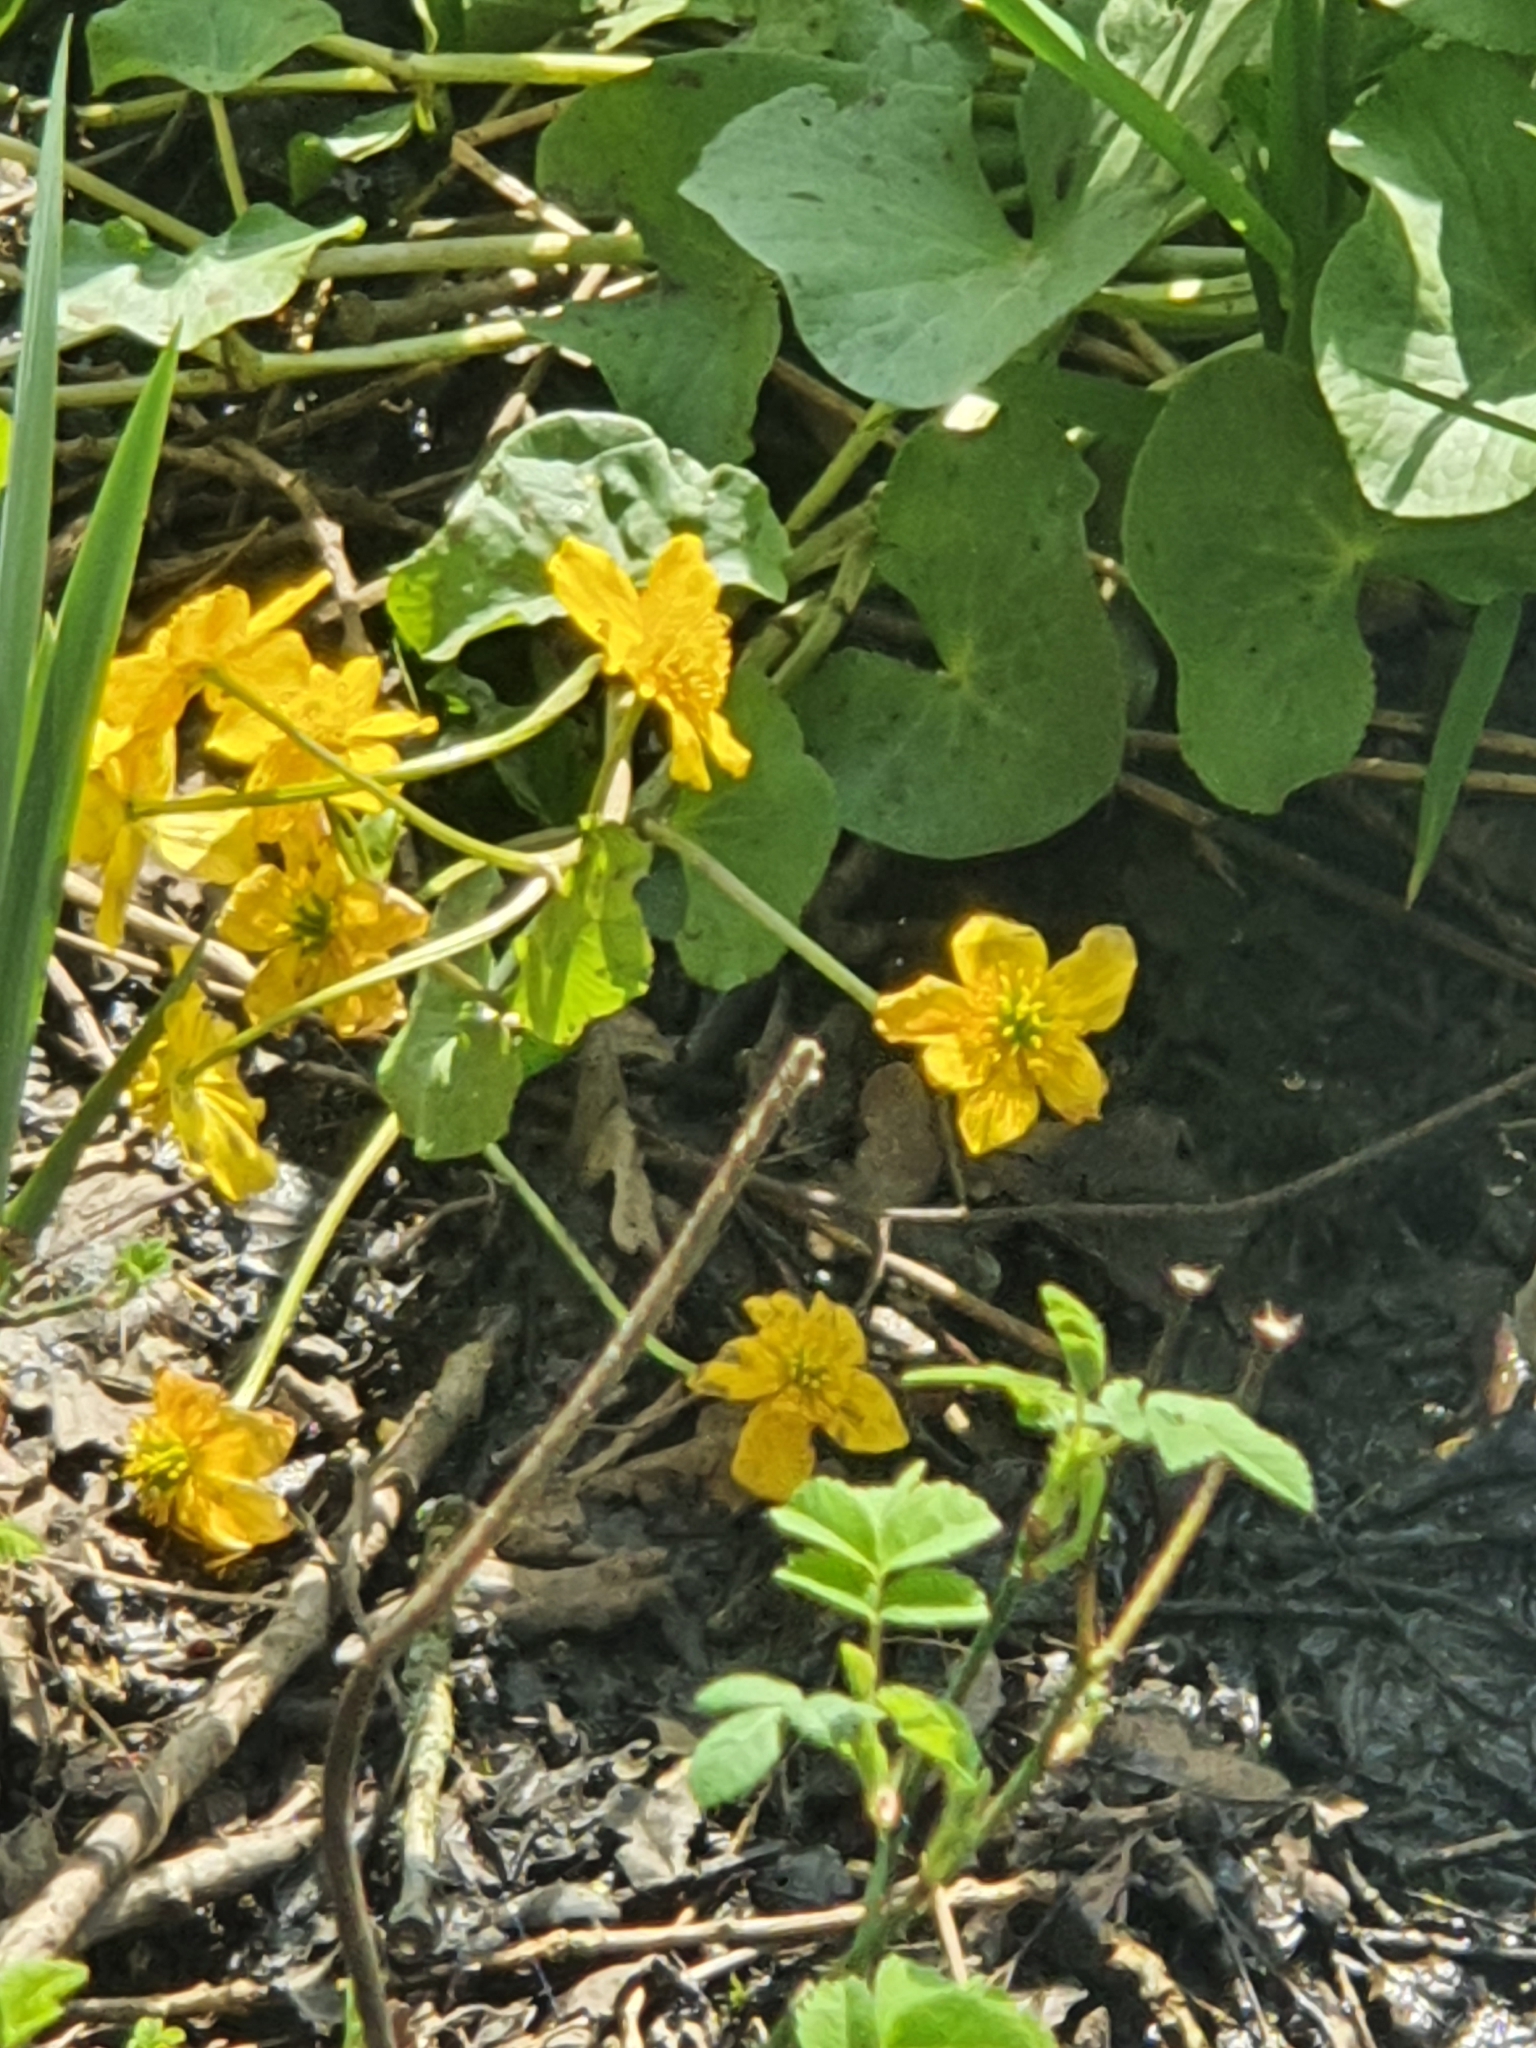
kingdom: Plantae
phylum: Tracheophyta
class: Magnoliopsida
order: Ranunculales
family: Ranunculaceae
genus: Caltha
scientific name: Caltha palustris
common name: Marsh marigold
